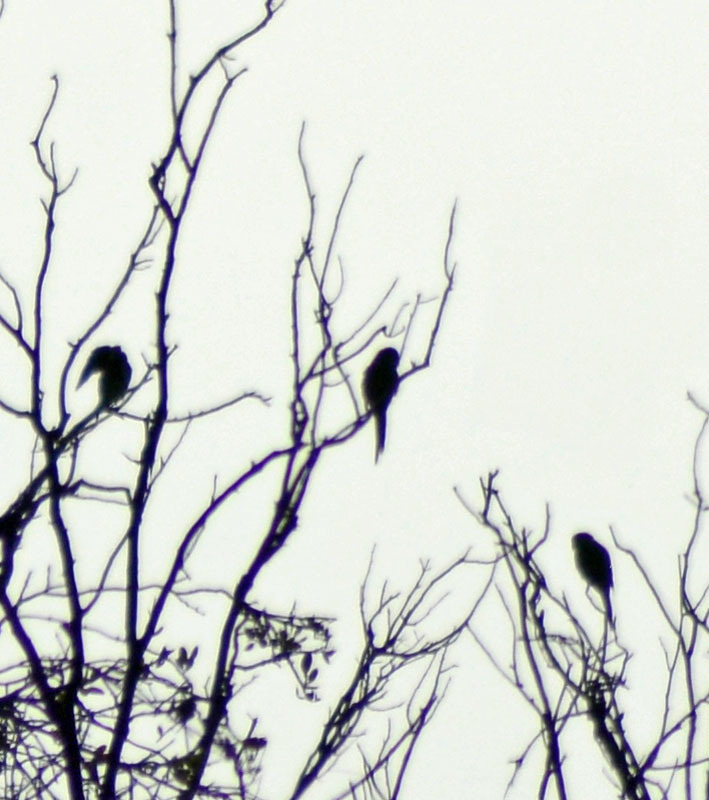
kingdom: Animalia
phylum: Chordata
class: Aves
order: Psittaciformes
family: Psittacidae
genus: Myiopsitta
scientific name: Myiopsitta monachus
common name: Monk parakeet
